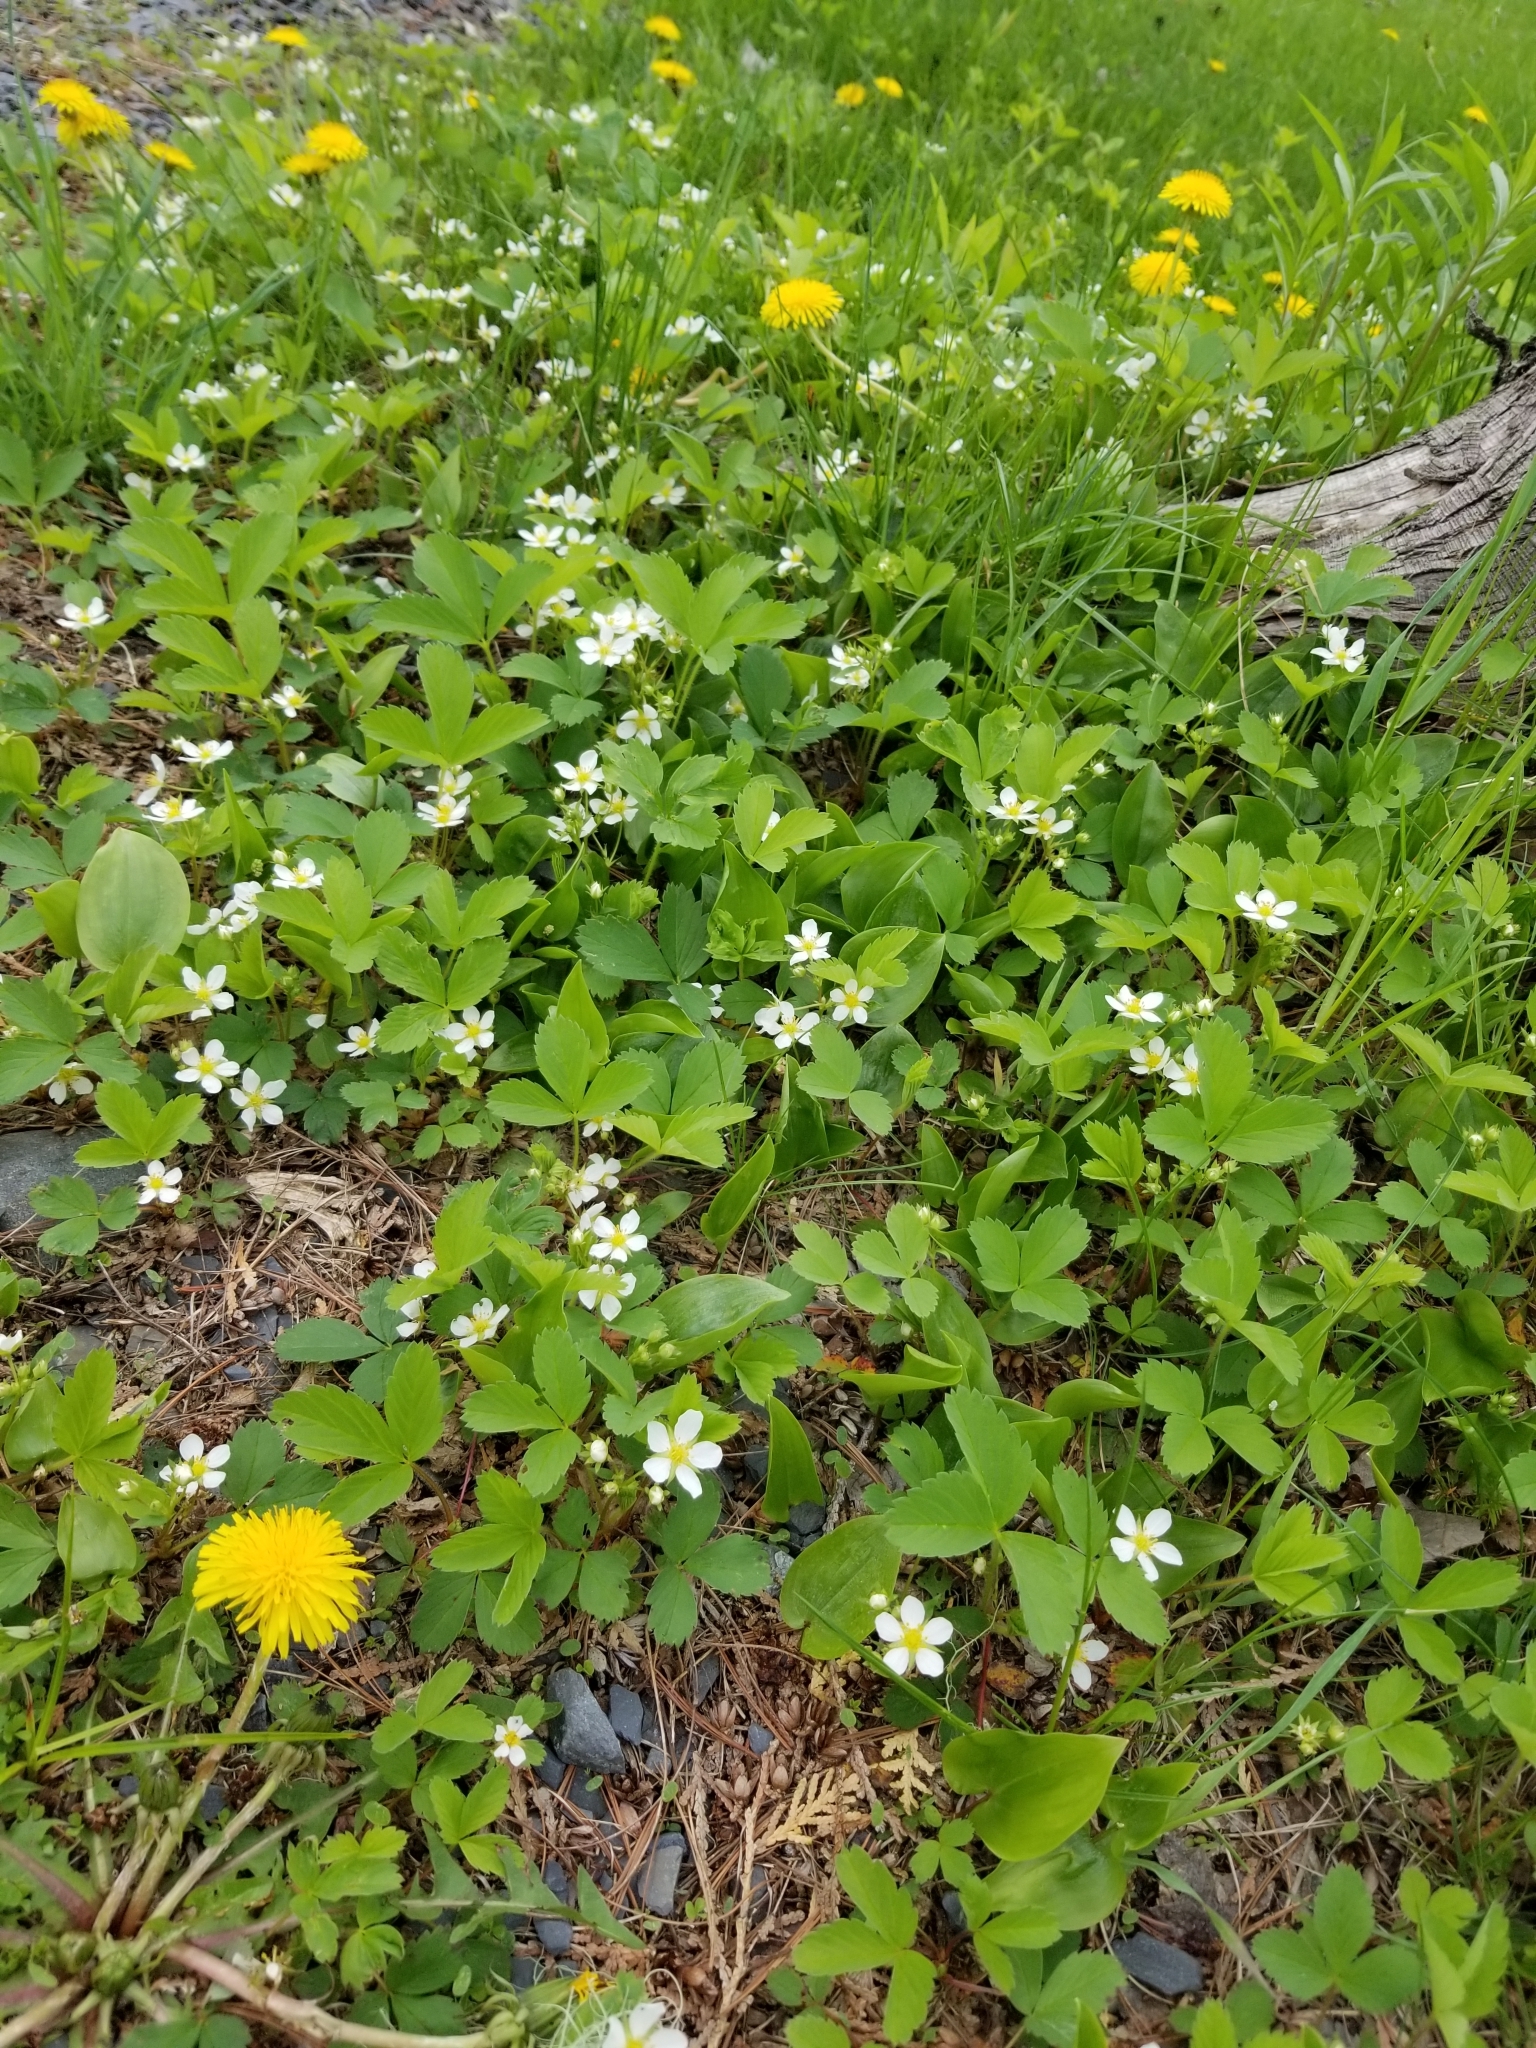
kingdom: Plantae
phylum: Tracheophyta
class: Magnoliopsida
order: Rosales
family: Rosaceae
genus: Fragaria
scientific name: Fragaria virginiana
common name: Thickleaved wild strawberry
